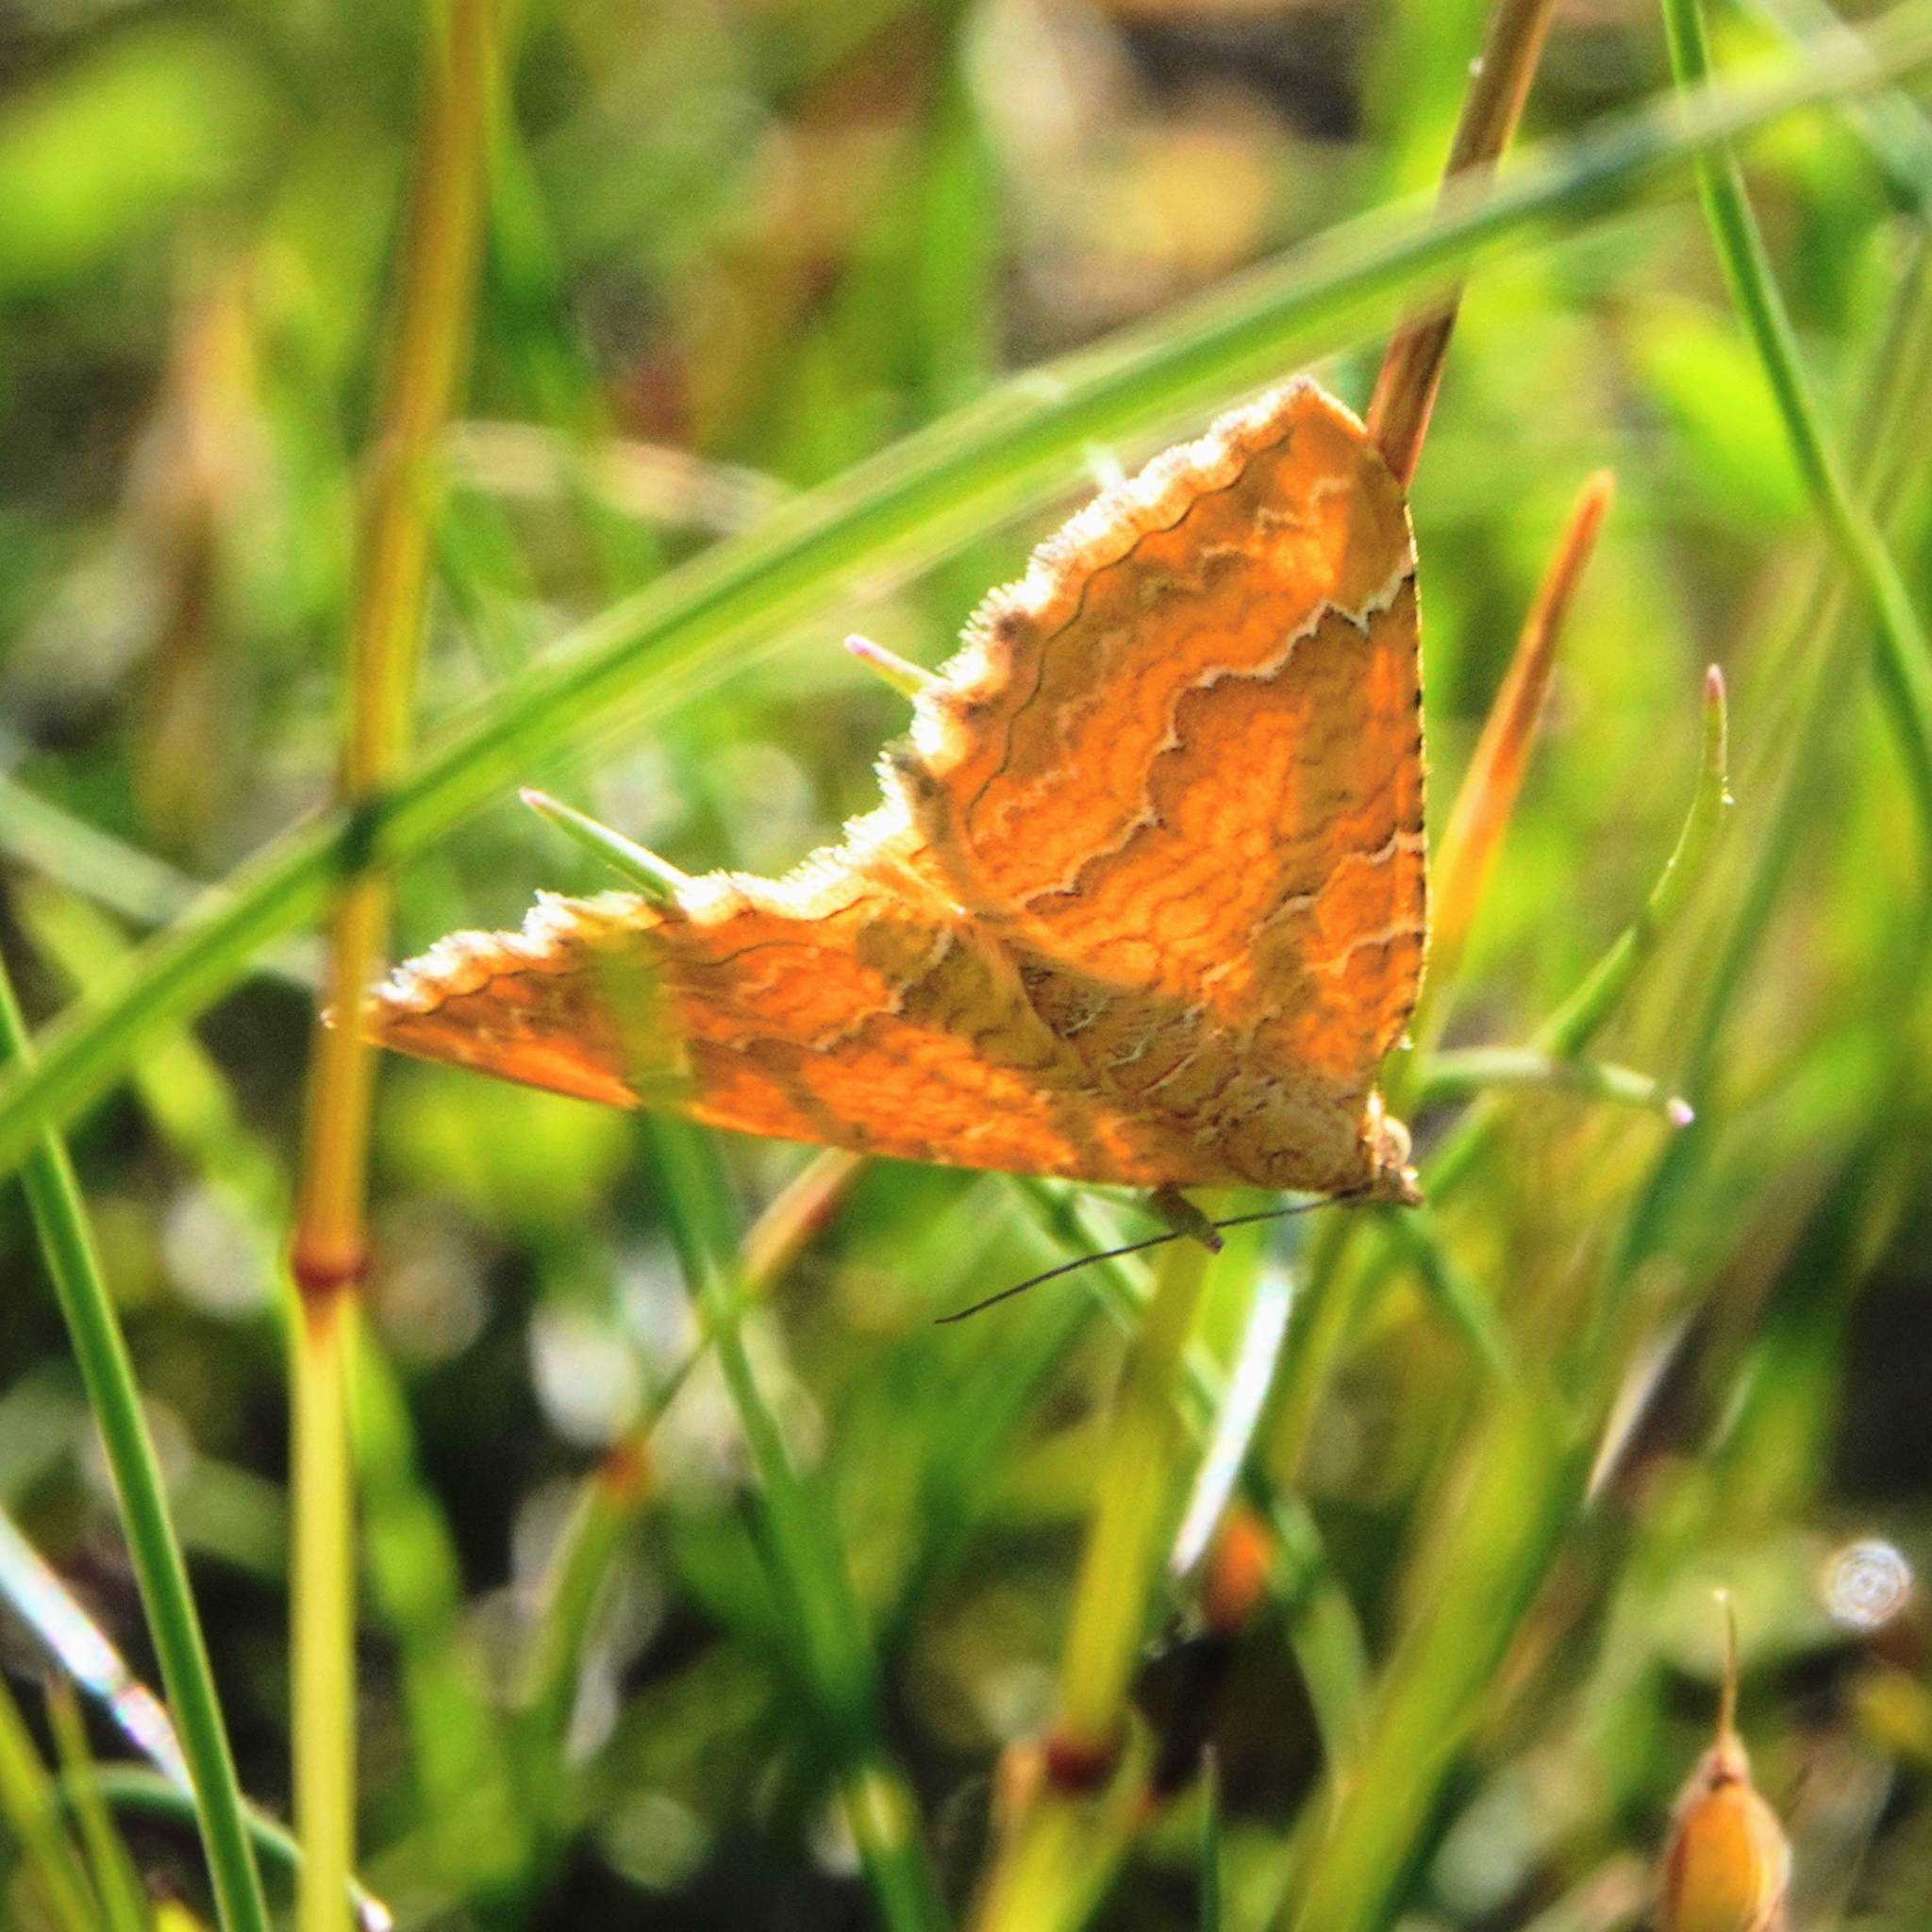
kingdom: Animalia
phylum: Arthropoda
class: Insecta
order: Lepidoptera
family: Geometridae
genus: Camptogramma
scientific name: Camptogramma bilineata
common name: Yellow shell
